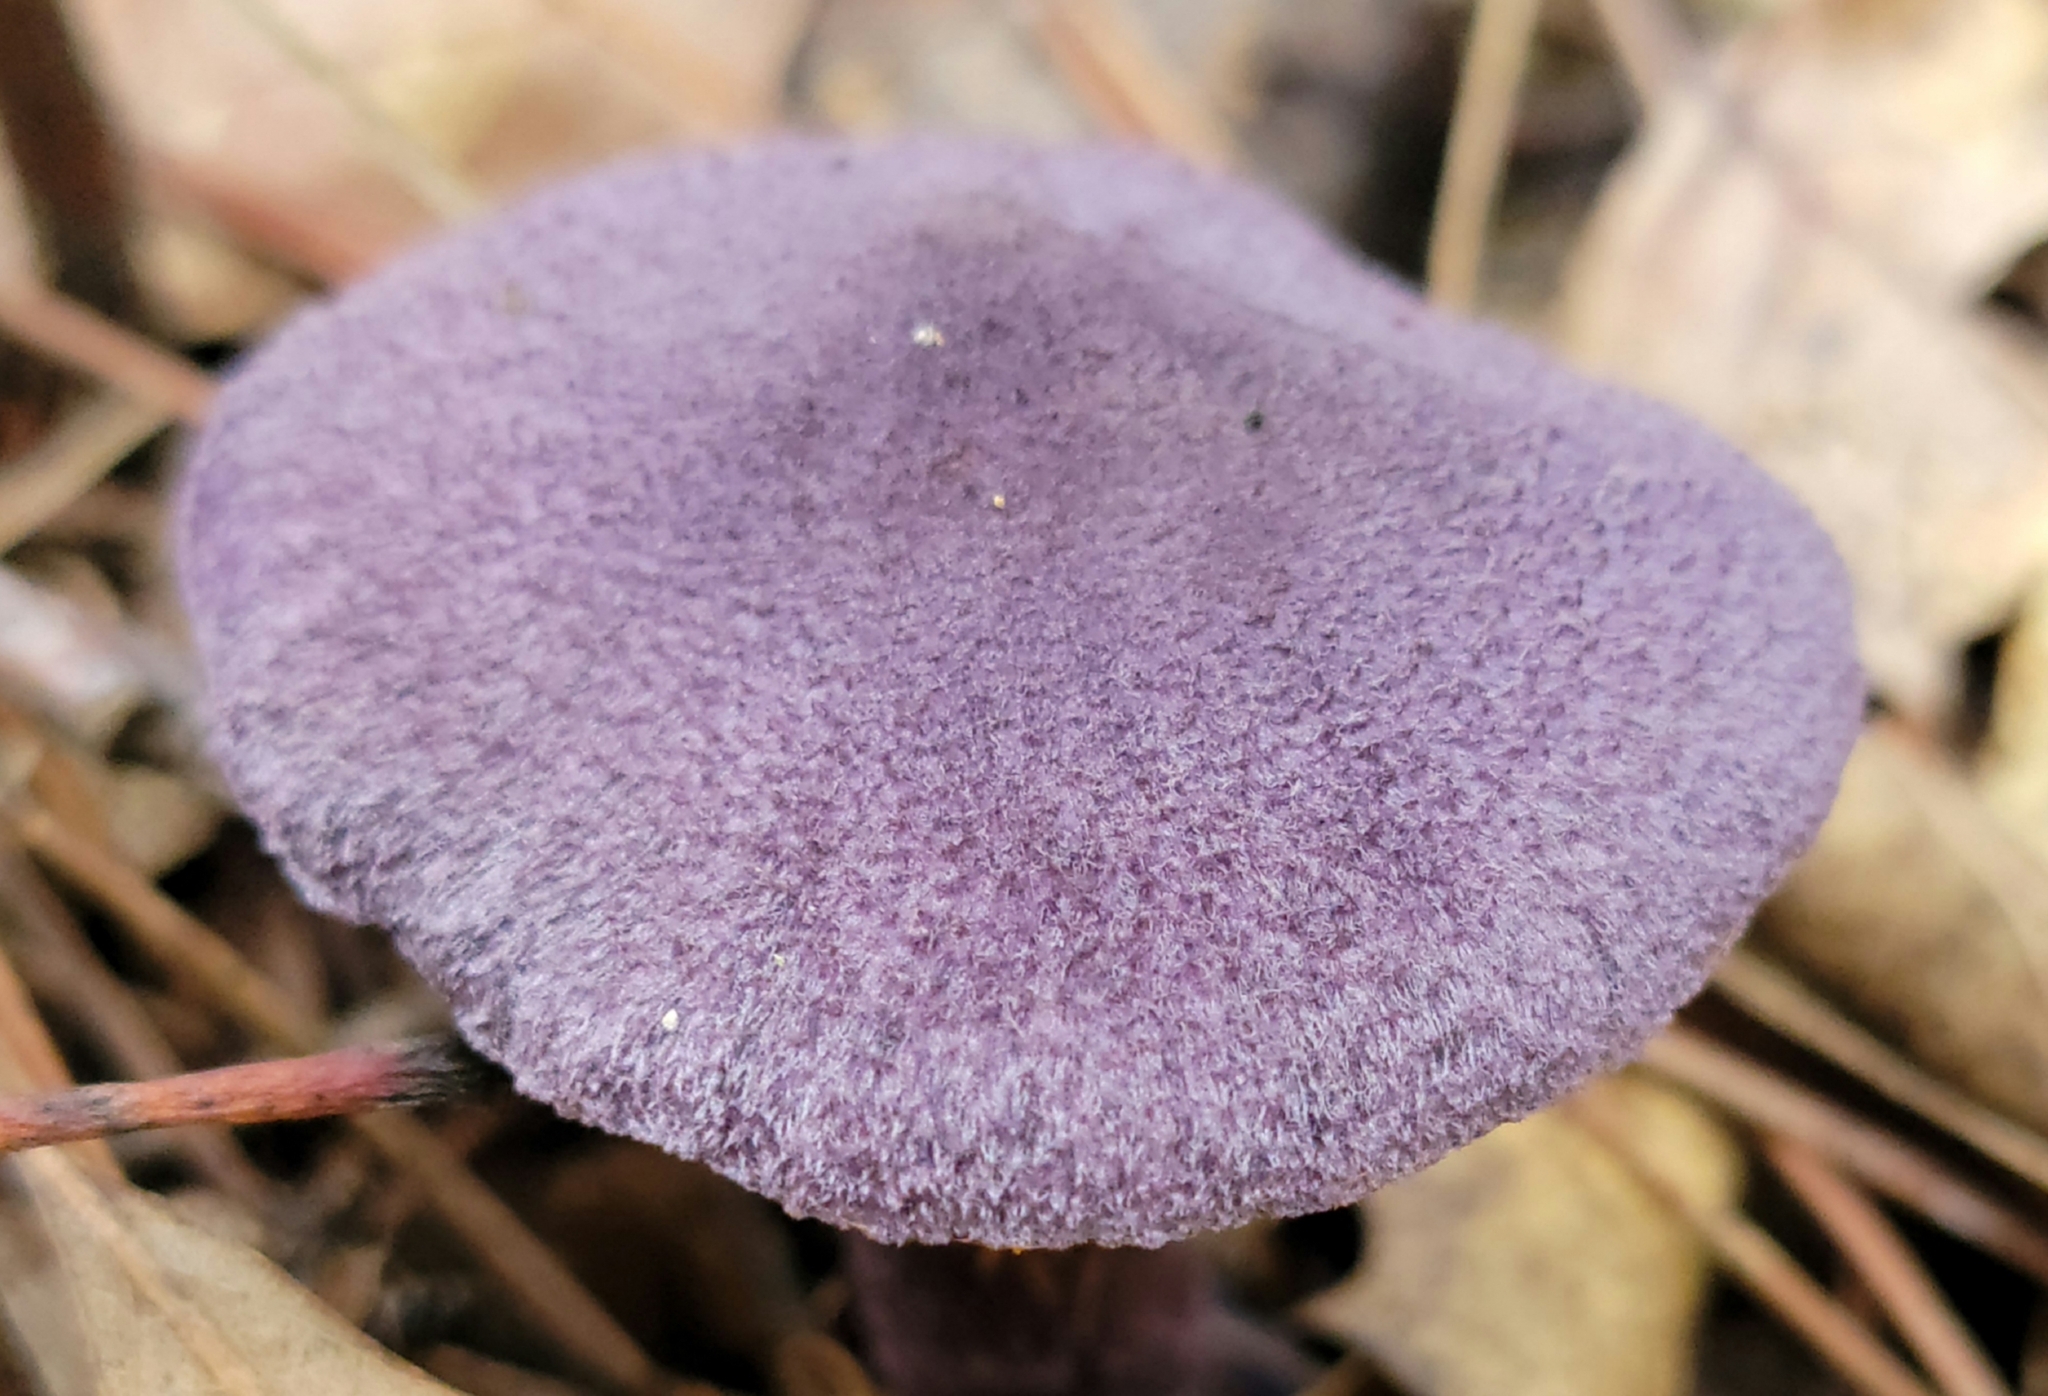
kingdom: Fungi
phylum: Basidiomycota
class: Agaricomycetes
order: Agaricales
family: Cortinariaceae
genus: Cortinarius
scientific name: Cortinarius violaceus
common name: Violet webcap
